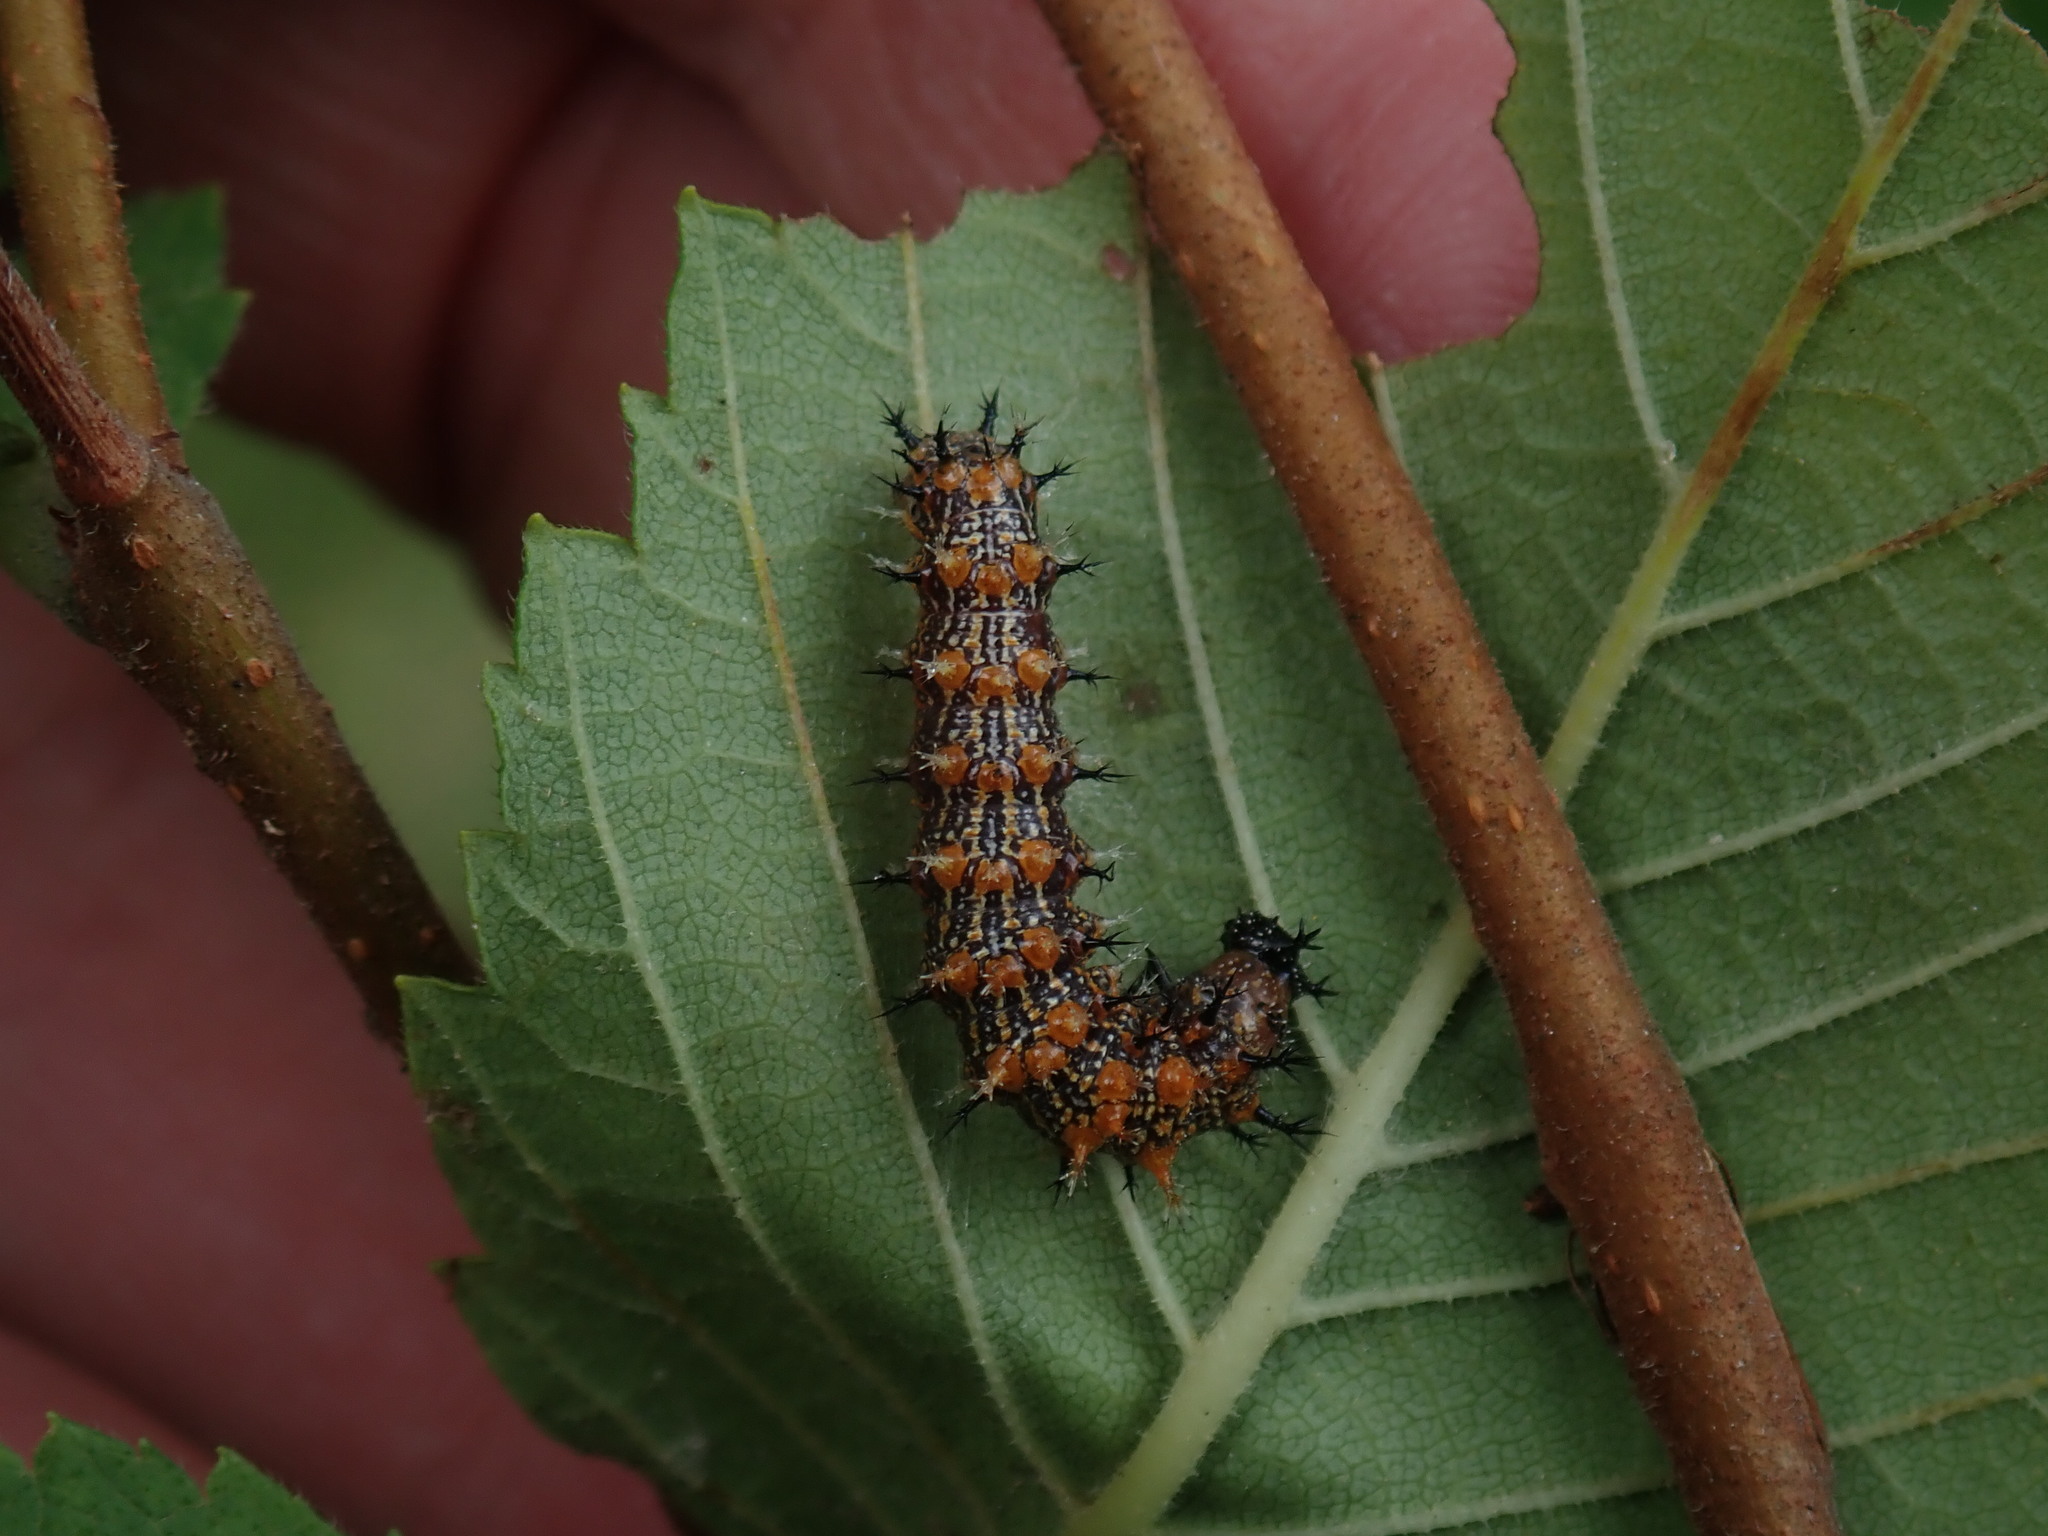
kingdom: Animalia
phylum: Arthropoda
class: Insecta
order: Lepidoptera
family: Nymphalidae
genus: Polygonia
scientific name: Polygonia interrogationis
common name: Question mark
